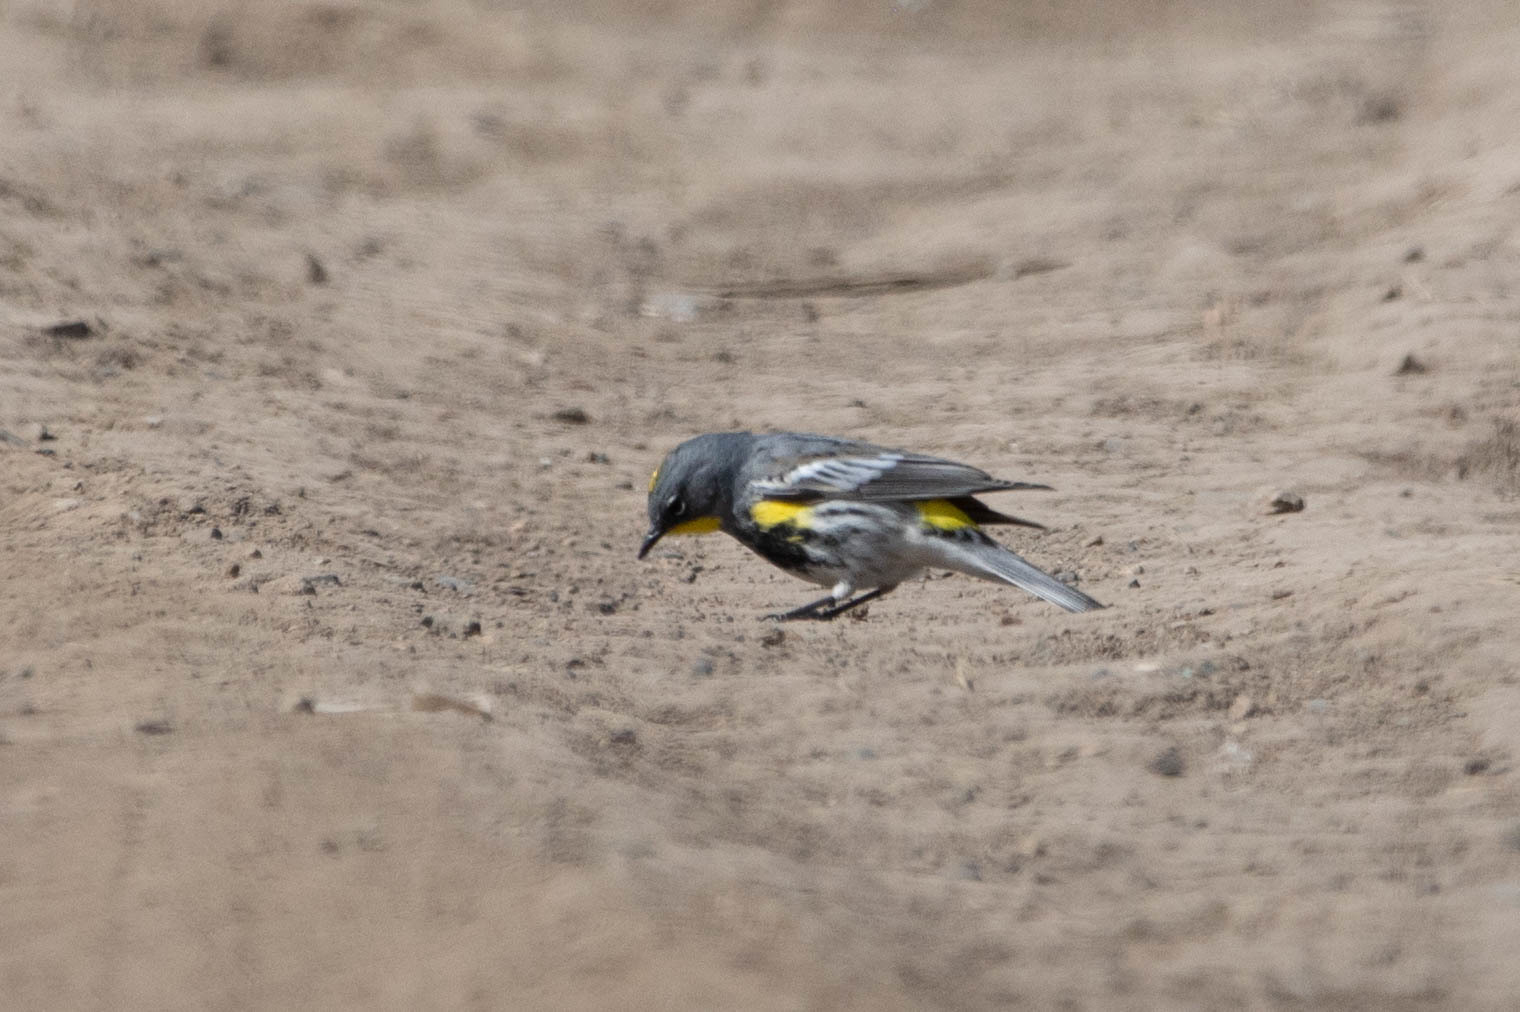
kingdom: Animalia
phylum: Chordata
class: Aves
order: Passeriformes
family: Parulidae
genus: Setophaga
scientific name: Setophaga auduboni
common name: Audubon's warbler
